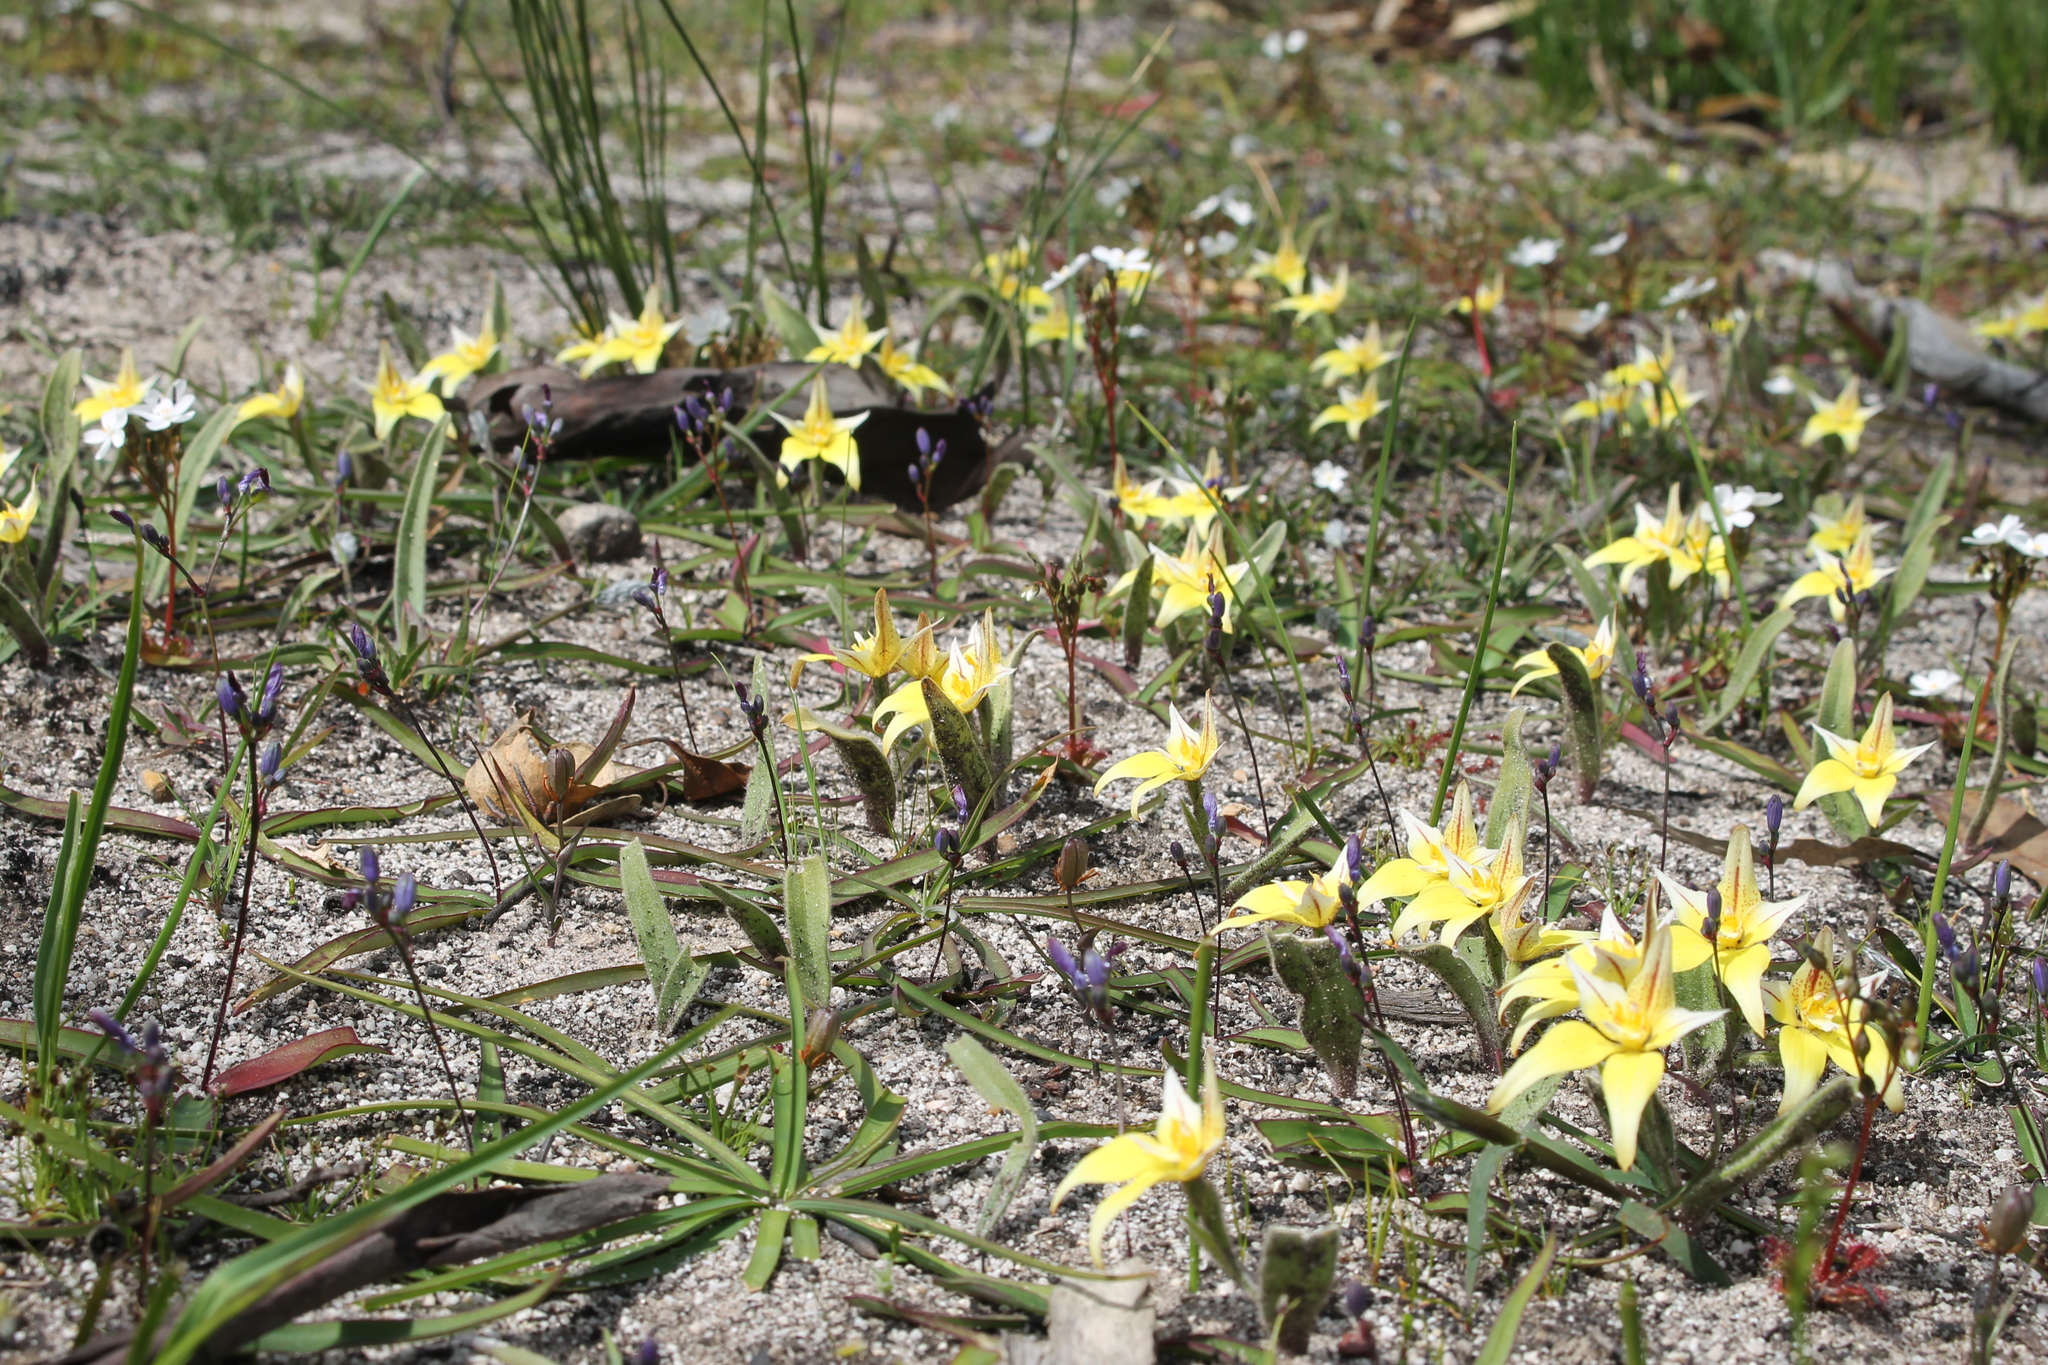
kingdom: Plantae
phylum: Tracheophyta
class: Liliopsida
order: Asparagales
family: Orchidaceae
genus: Caladenia
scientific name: Caladenia flava
